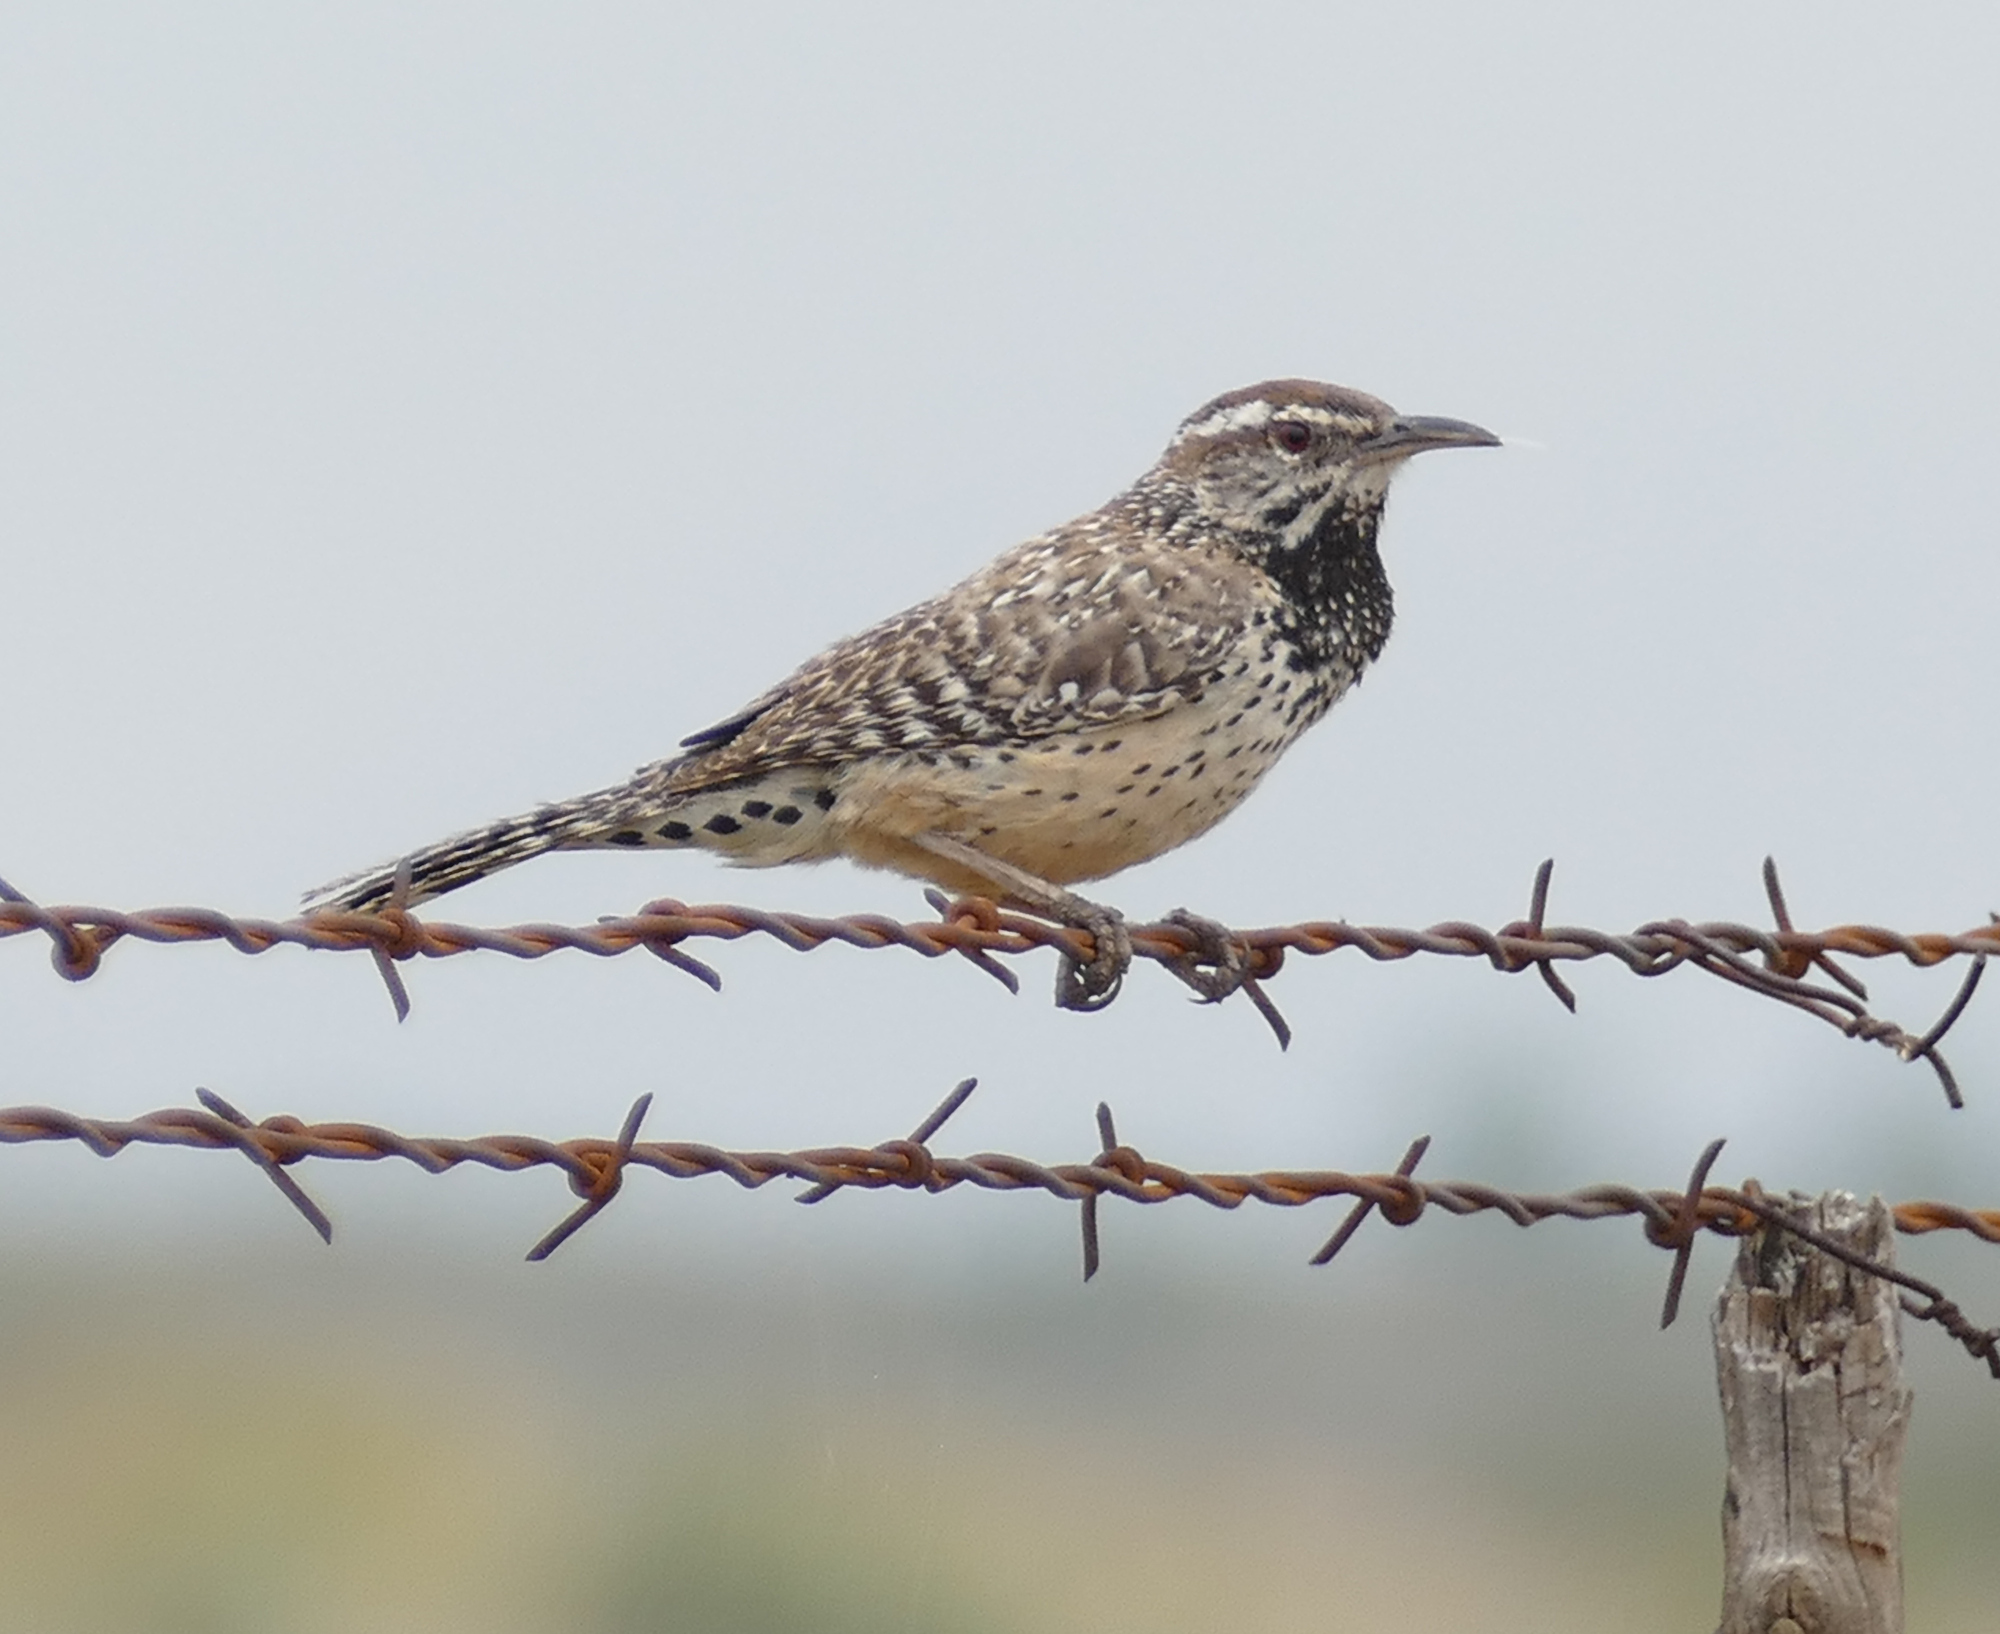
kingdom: Animalia
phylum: Chordata
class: Aves
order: Passeriformes
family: Troglodytidae
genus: Campylorhynchus
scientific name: Campylorhynchus brunneicapillus
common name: Cactus wren
